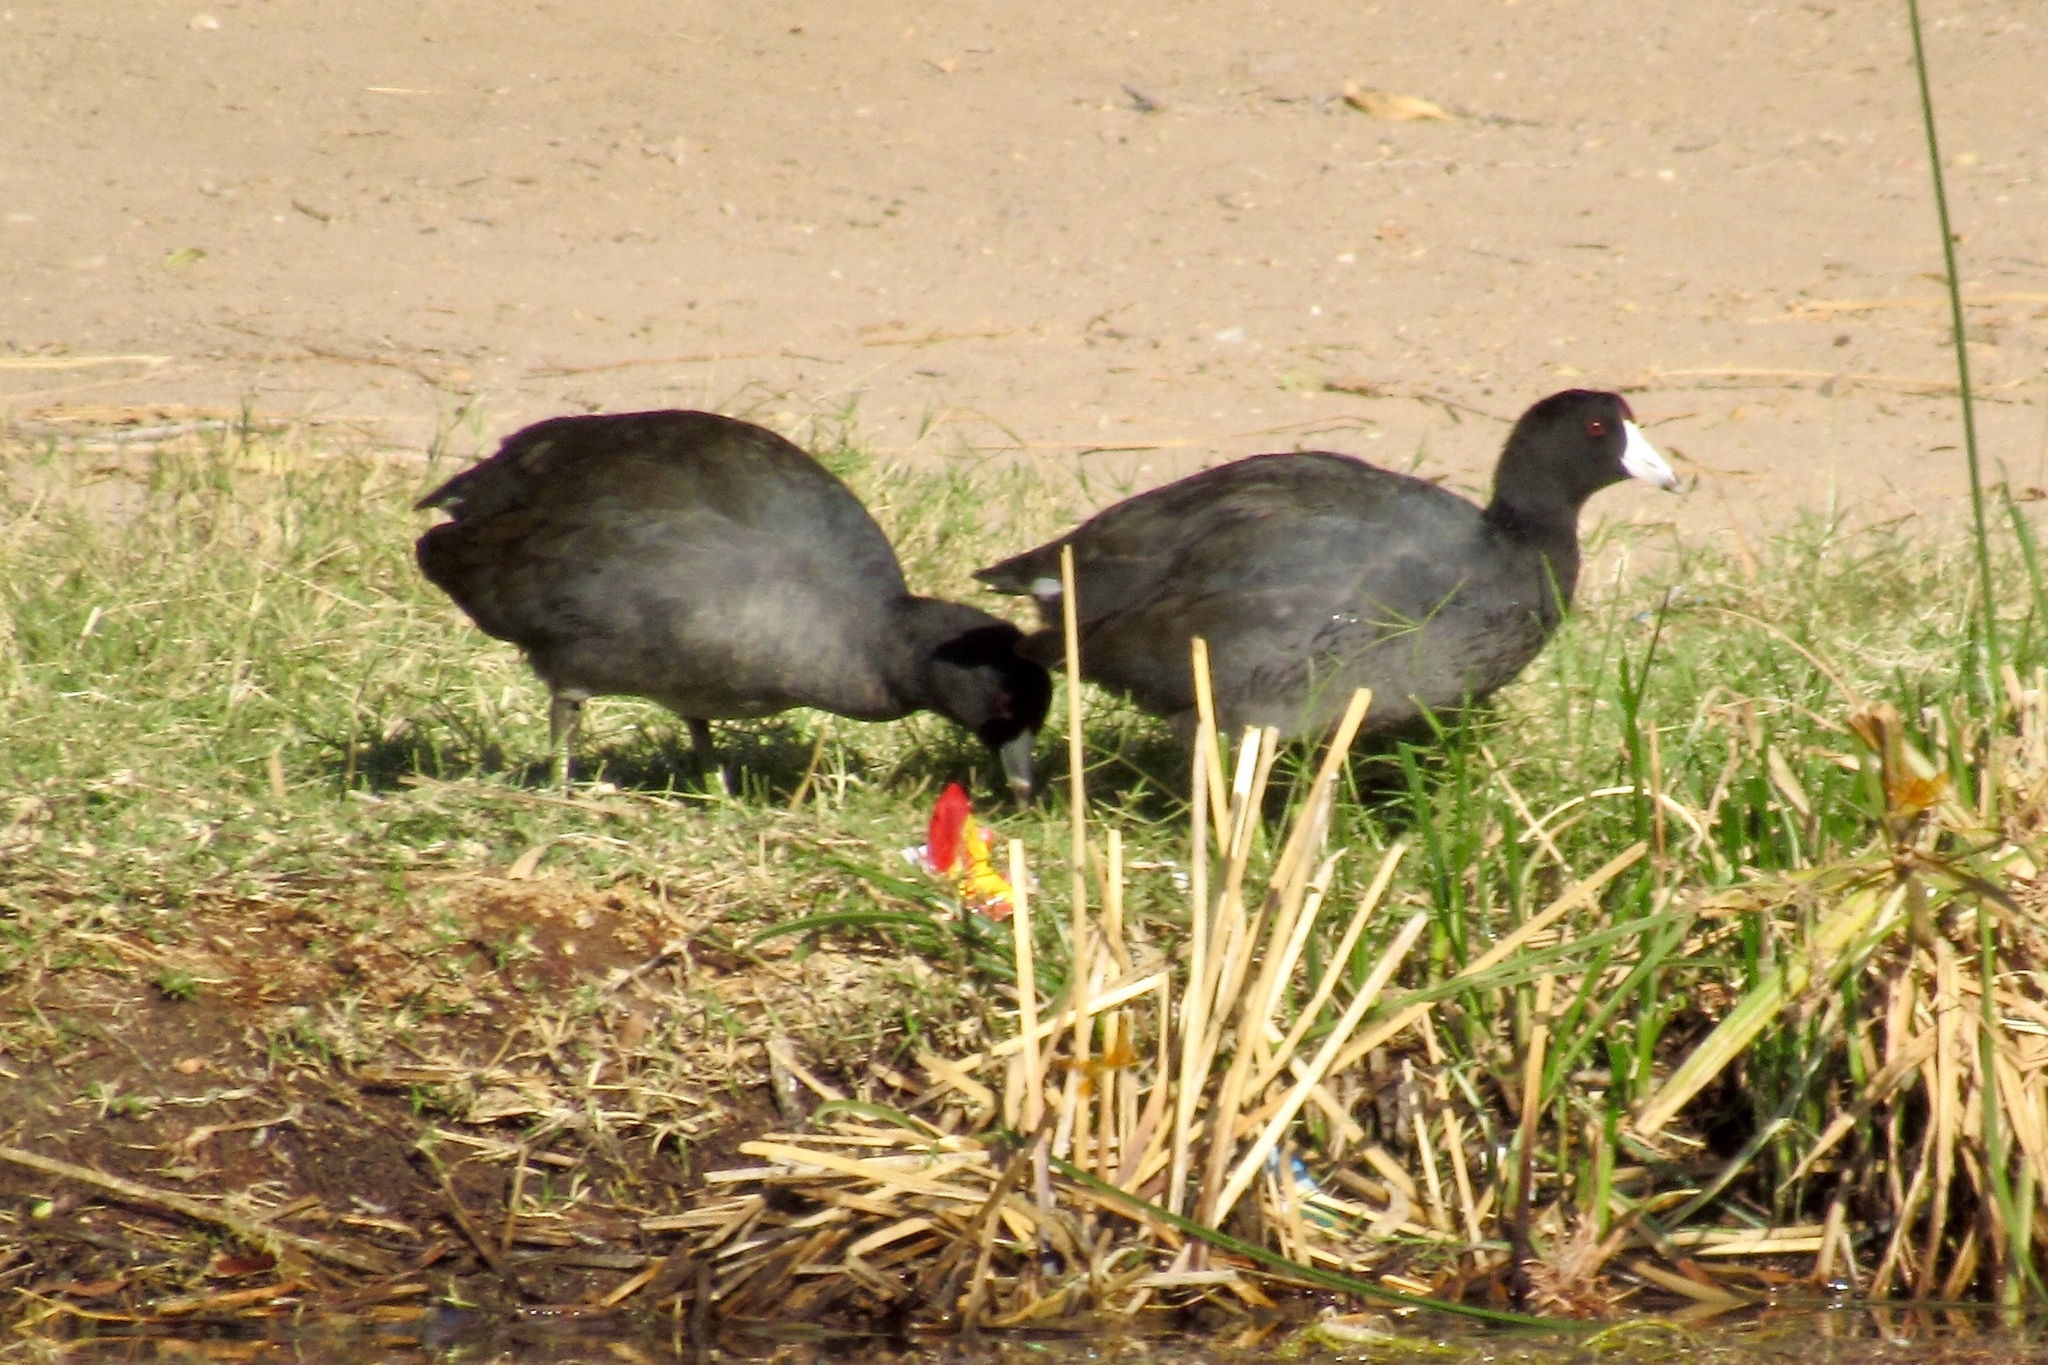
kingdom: Animalia
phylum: Chordata
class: Aves
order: Gruiformes
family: Rallidae
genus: Fulica
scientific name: Fulica americana
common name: American coot
